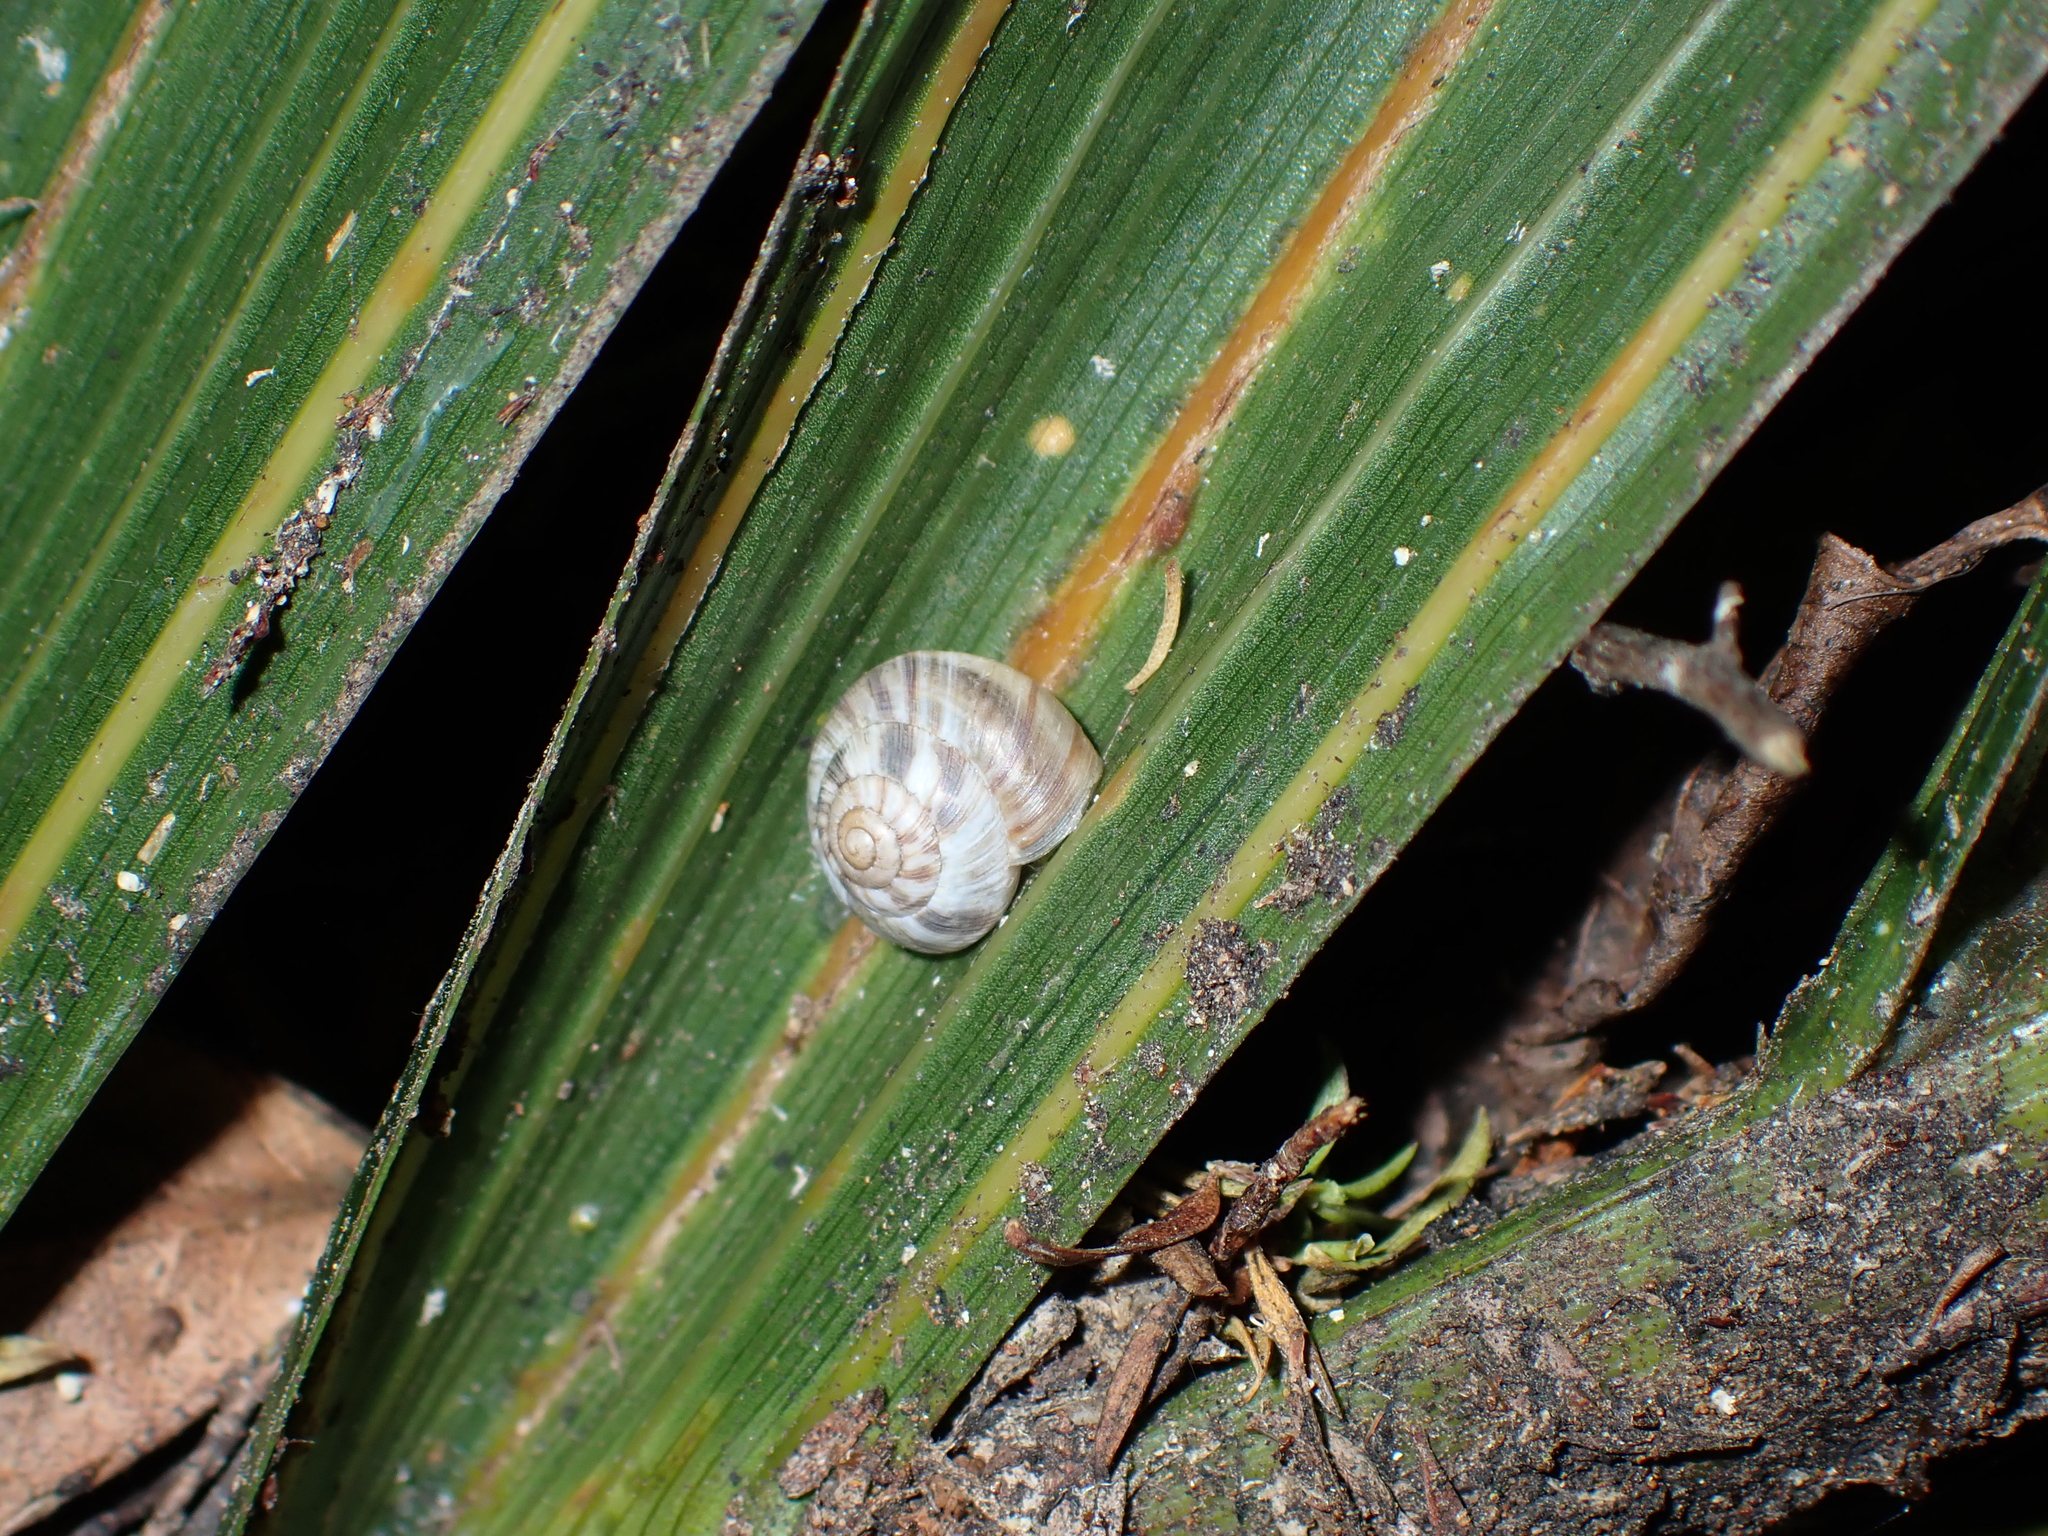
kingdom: Animalia
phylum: Mollusca
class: Gastropoda
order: Stylommatophora
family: Charopidae
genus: Serpho
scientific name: Serpho
